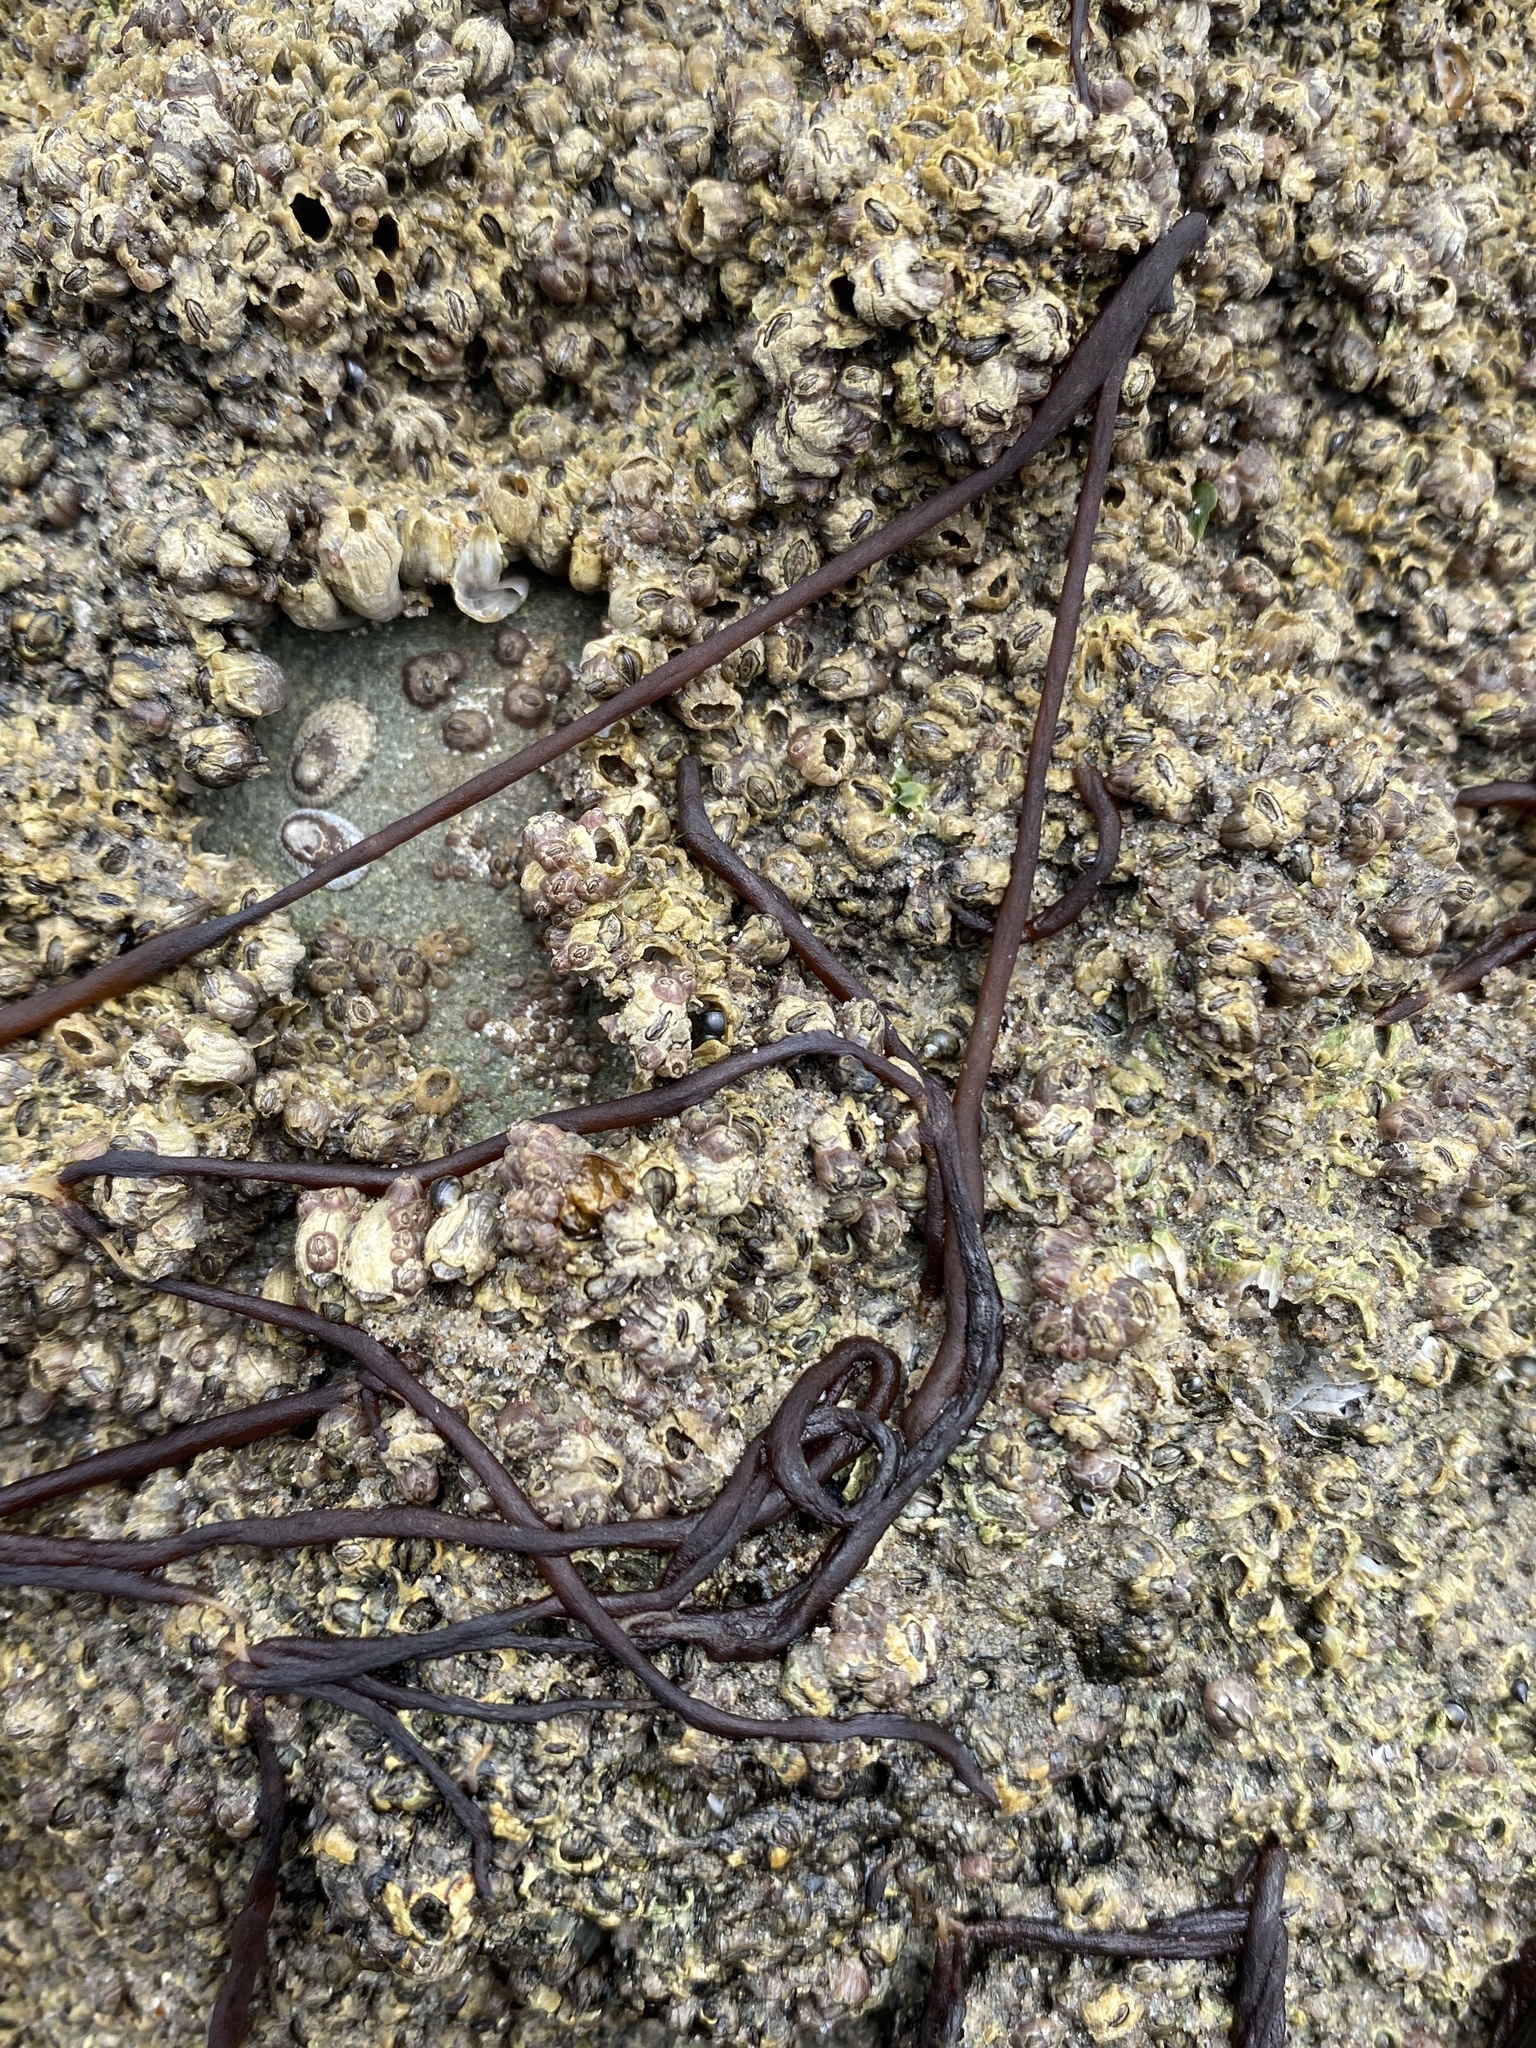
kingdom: Plantae
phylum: Rhodophyta
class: Florideophyceae
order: Nemaliales
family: Nemaliaceae
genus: Nemalion
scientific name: Nemalion elminthoides
